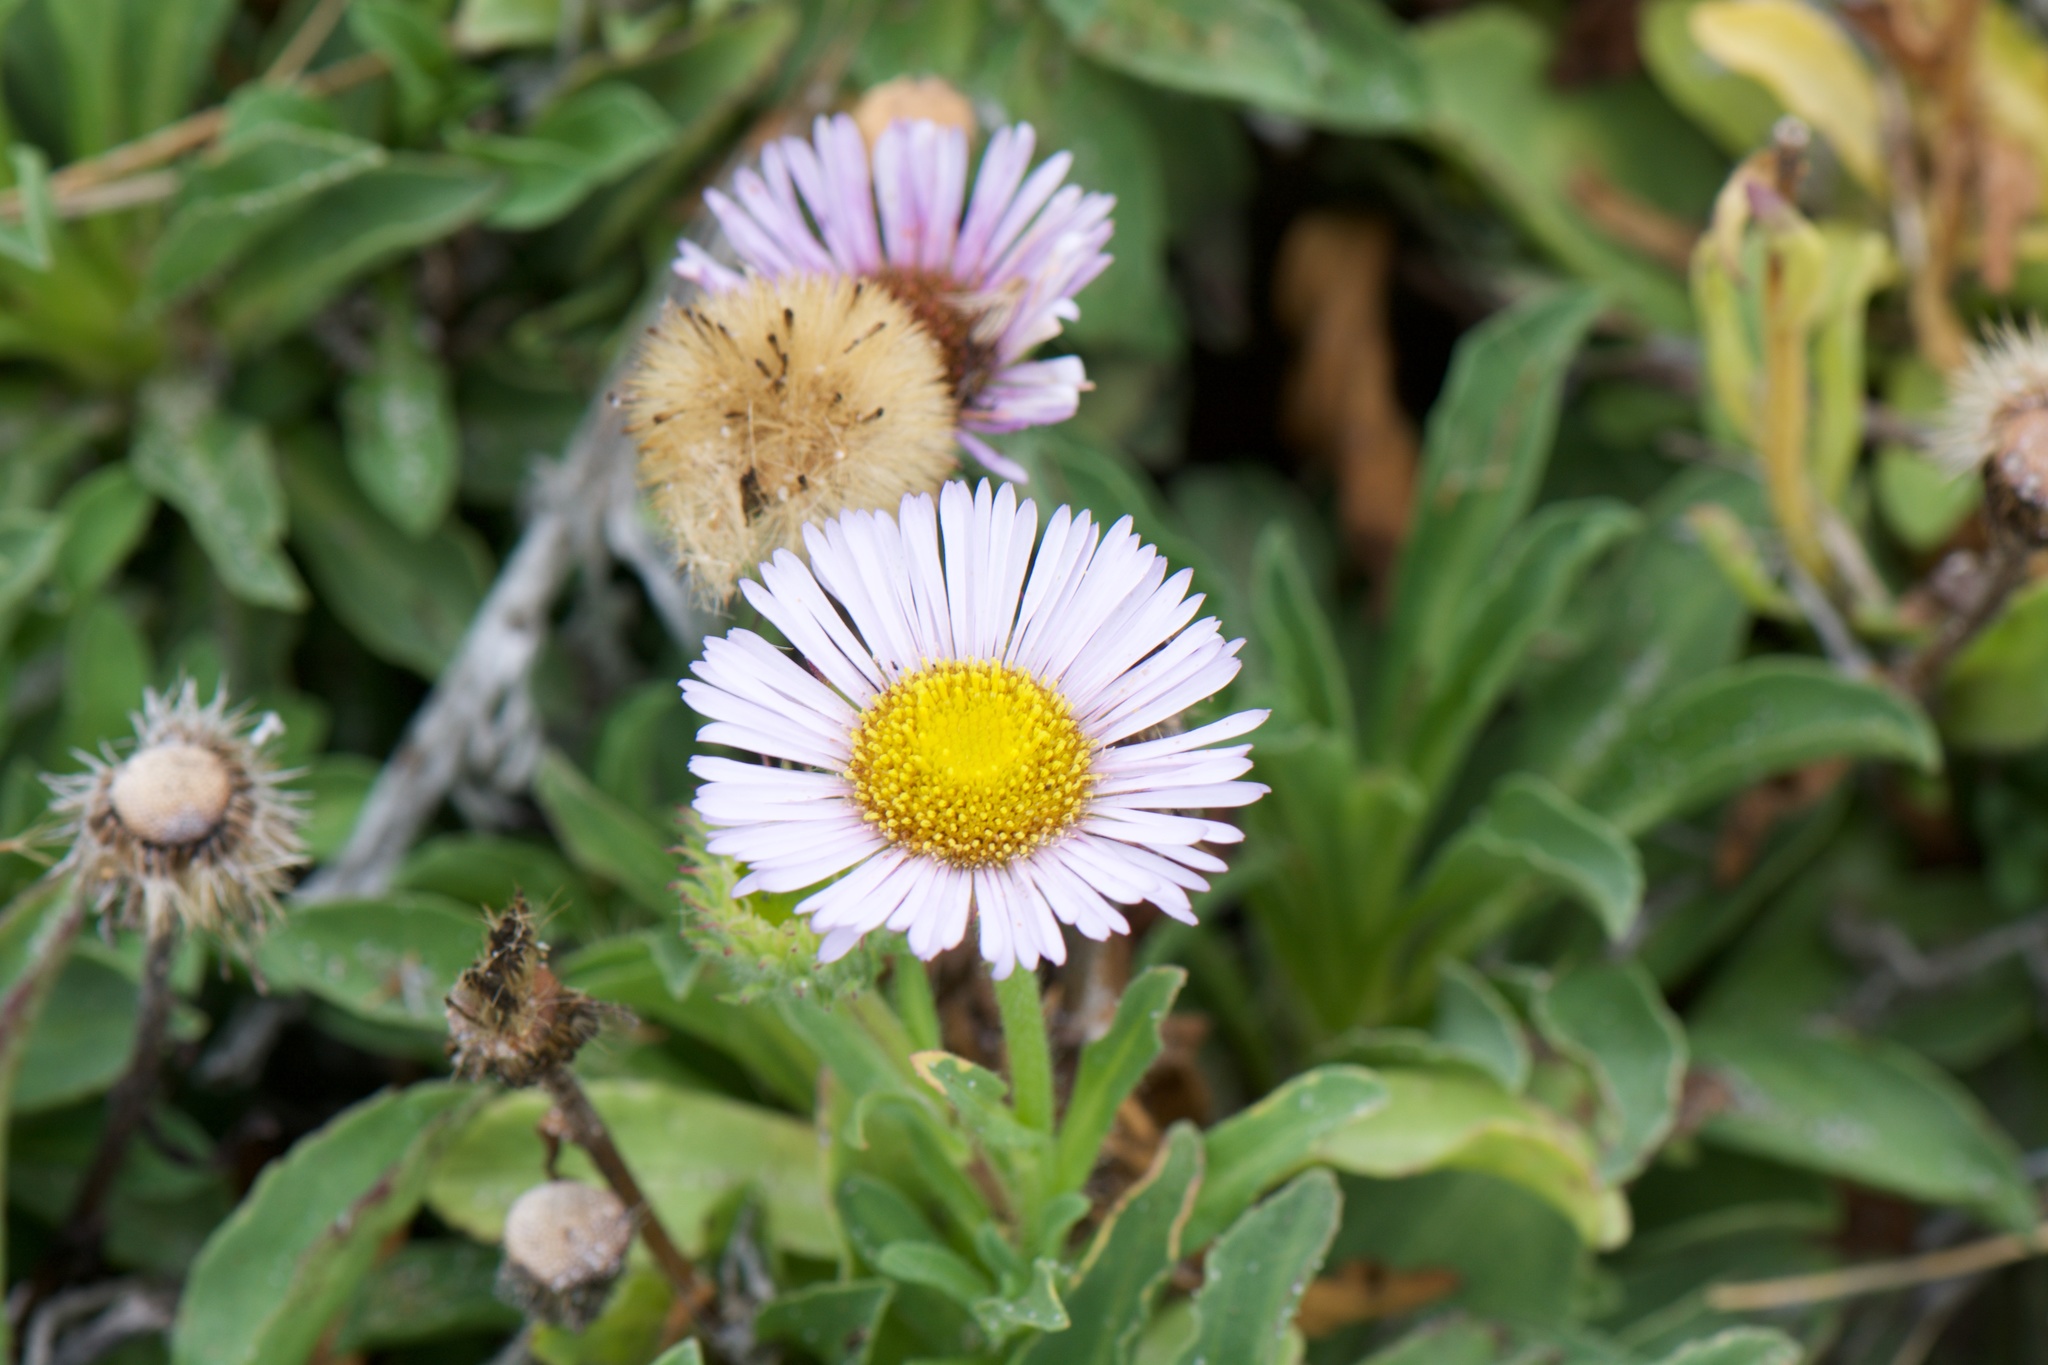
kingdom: Plantae
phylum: Tracheophyta
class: Magnoliopsida
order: Asterales
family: Asteraceae
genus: Erigeron
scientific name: Erigeron glaucus
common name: Seaside daisy
